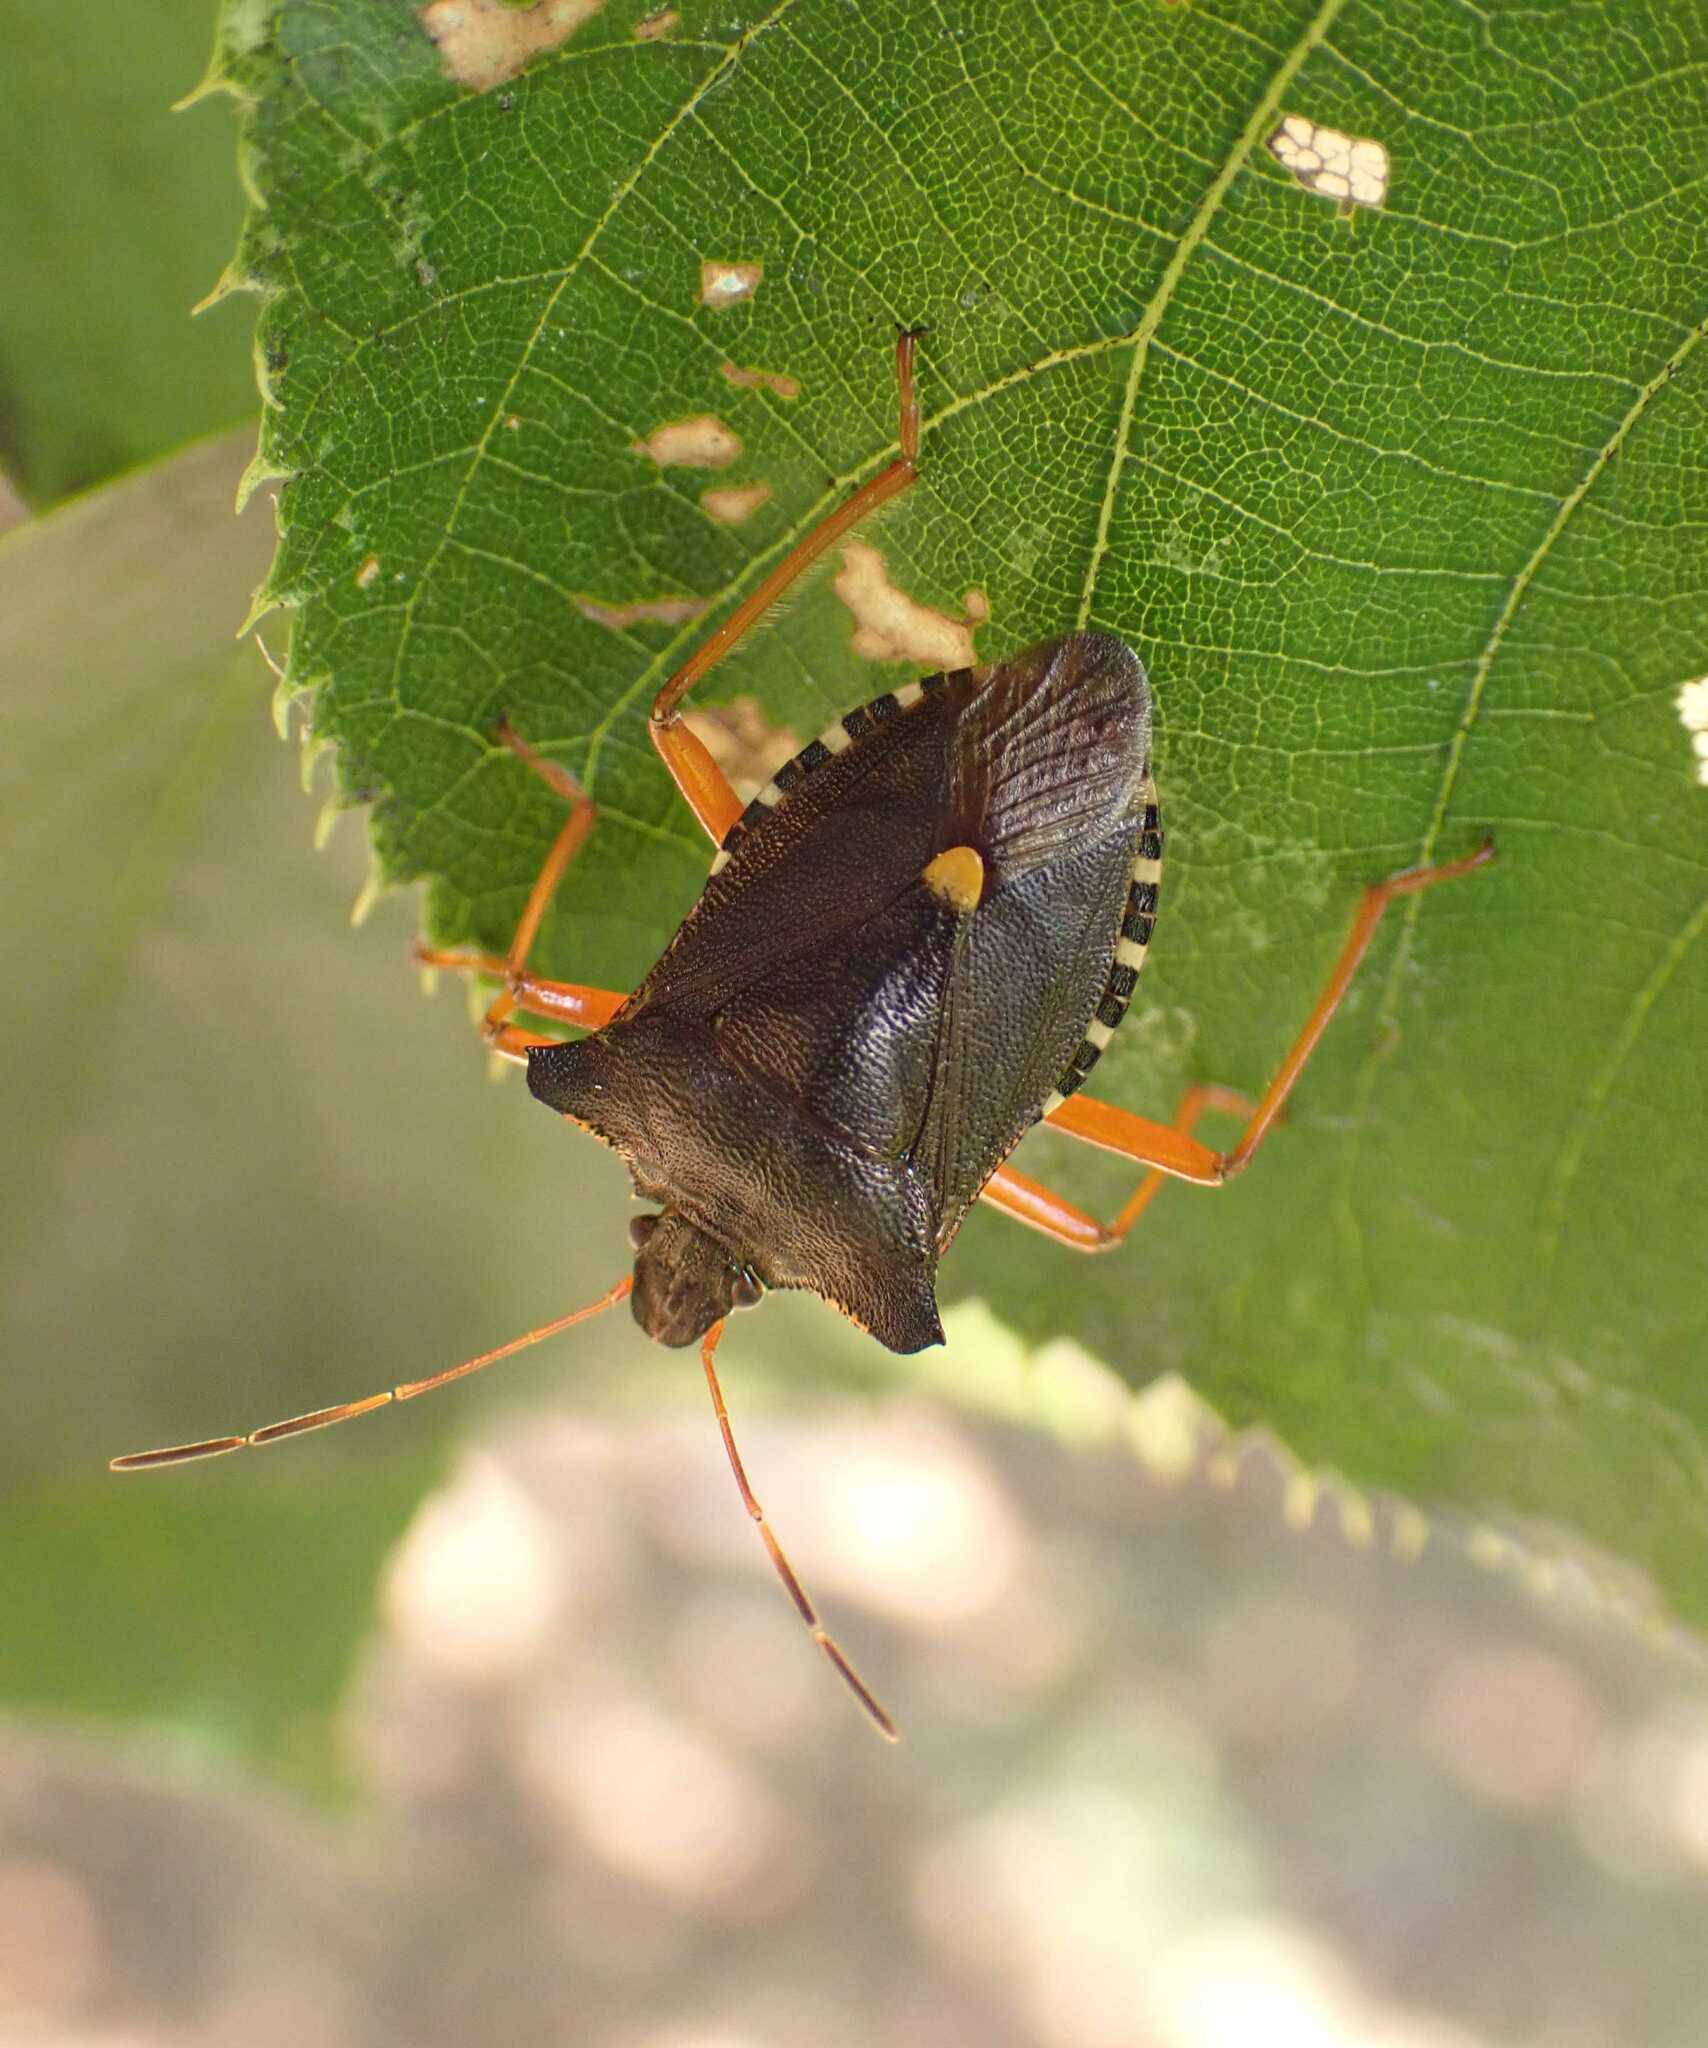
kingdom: Animalia
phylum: Arthropoda
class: Insecta
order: Hemiptera
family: Pentatomidae
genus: Pentatoma
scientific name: Pentatoma rufipes
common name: Forest bug
